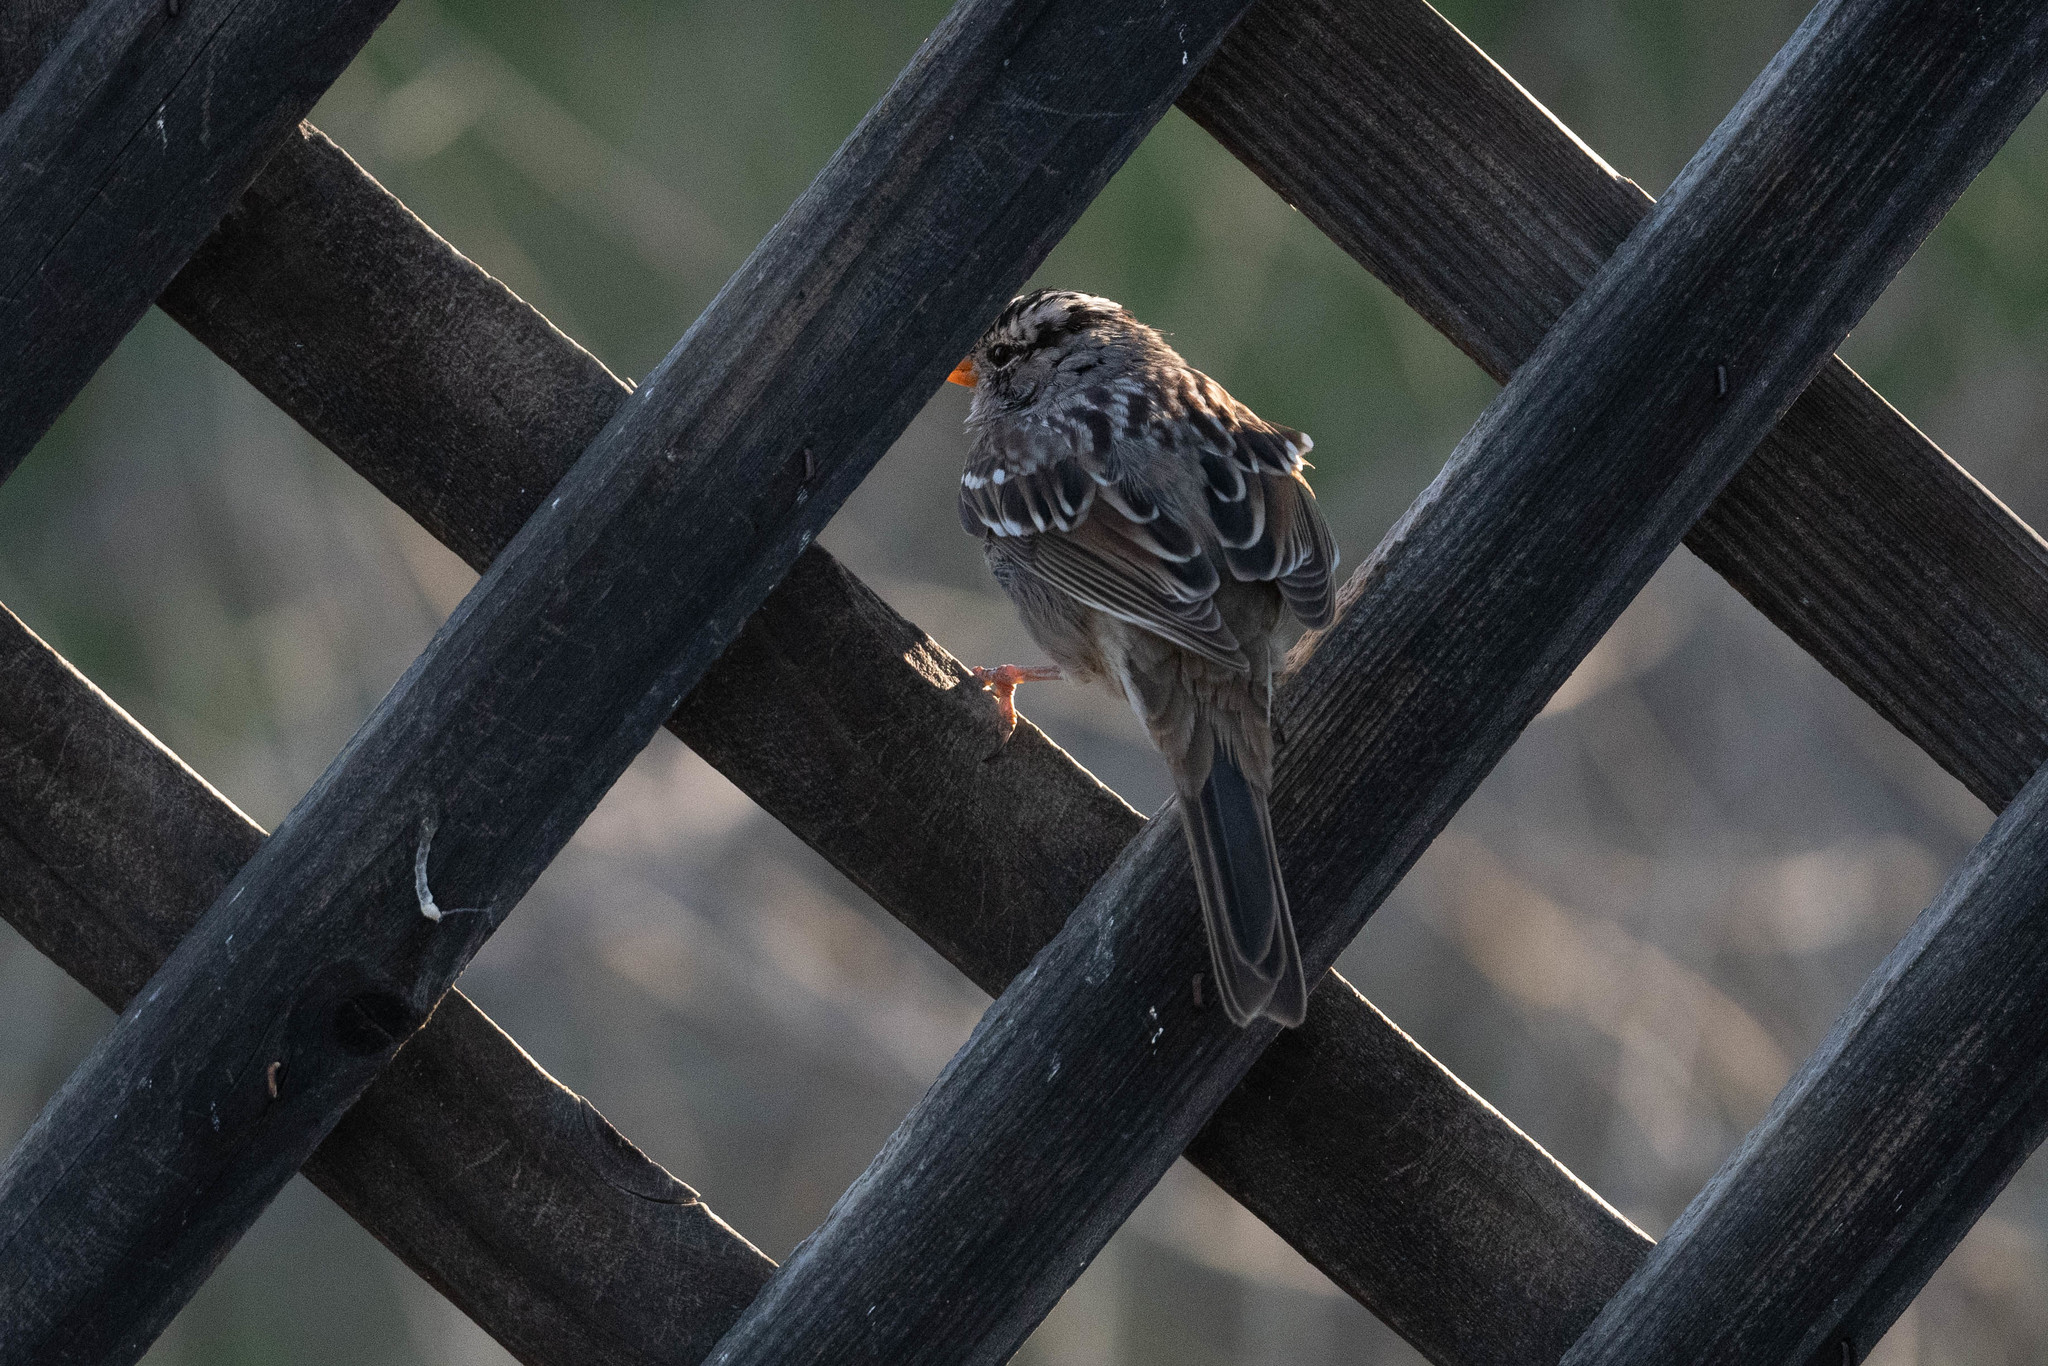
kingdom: Animalia
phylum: Chordata
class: Aves
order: Passeriformes
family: Passerellidae
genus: Zonotrichia
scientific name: Zonotrichia leucophrys
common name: White-crowned sparrow
